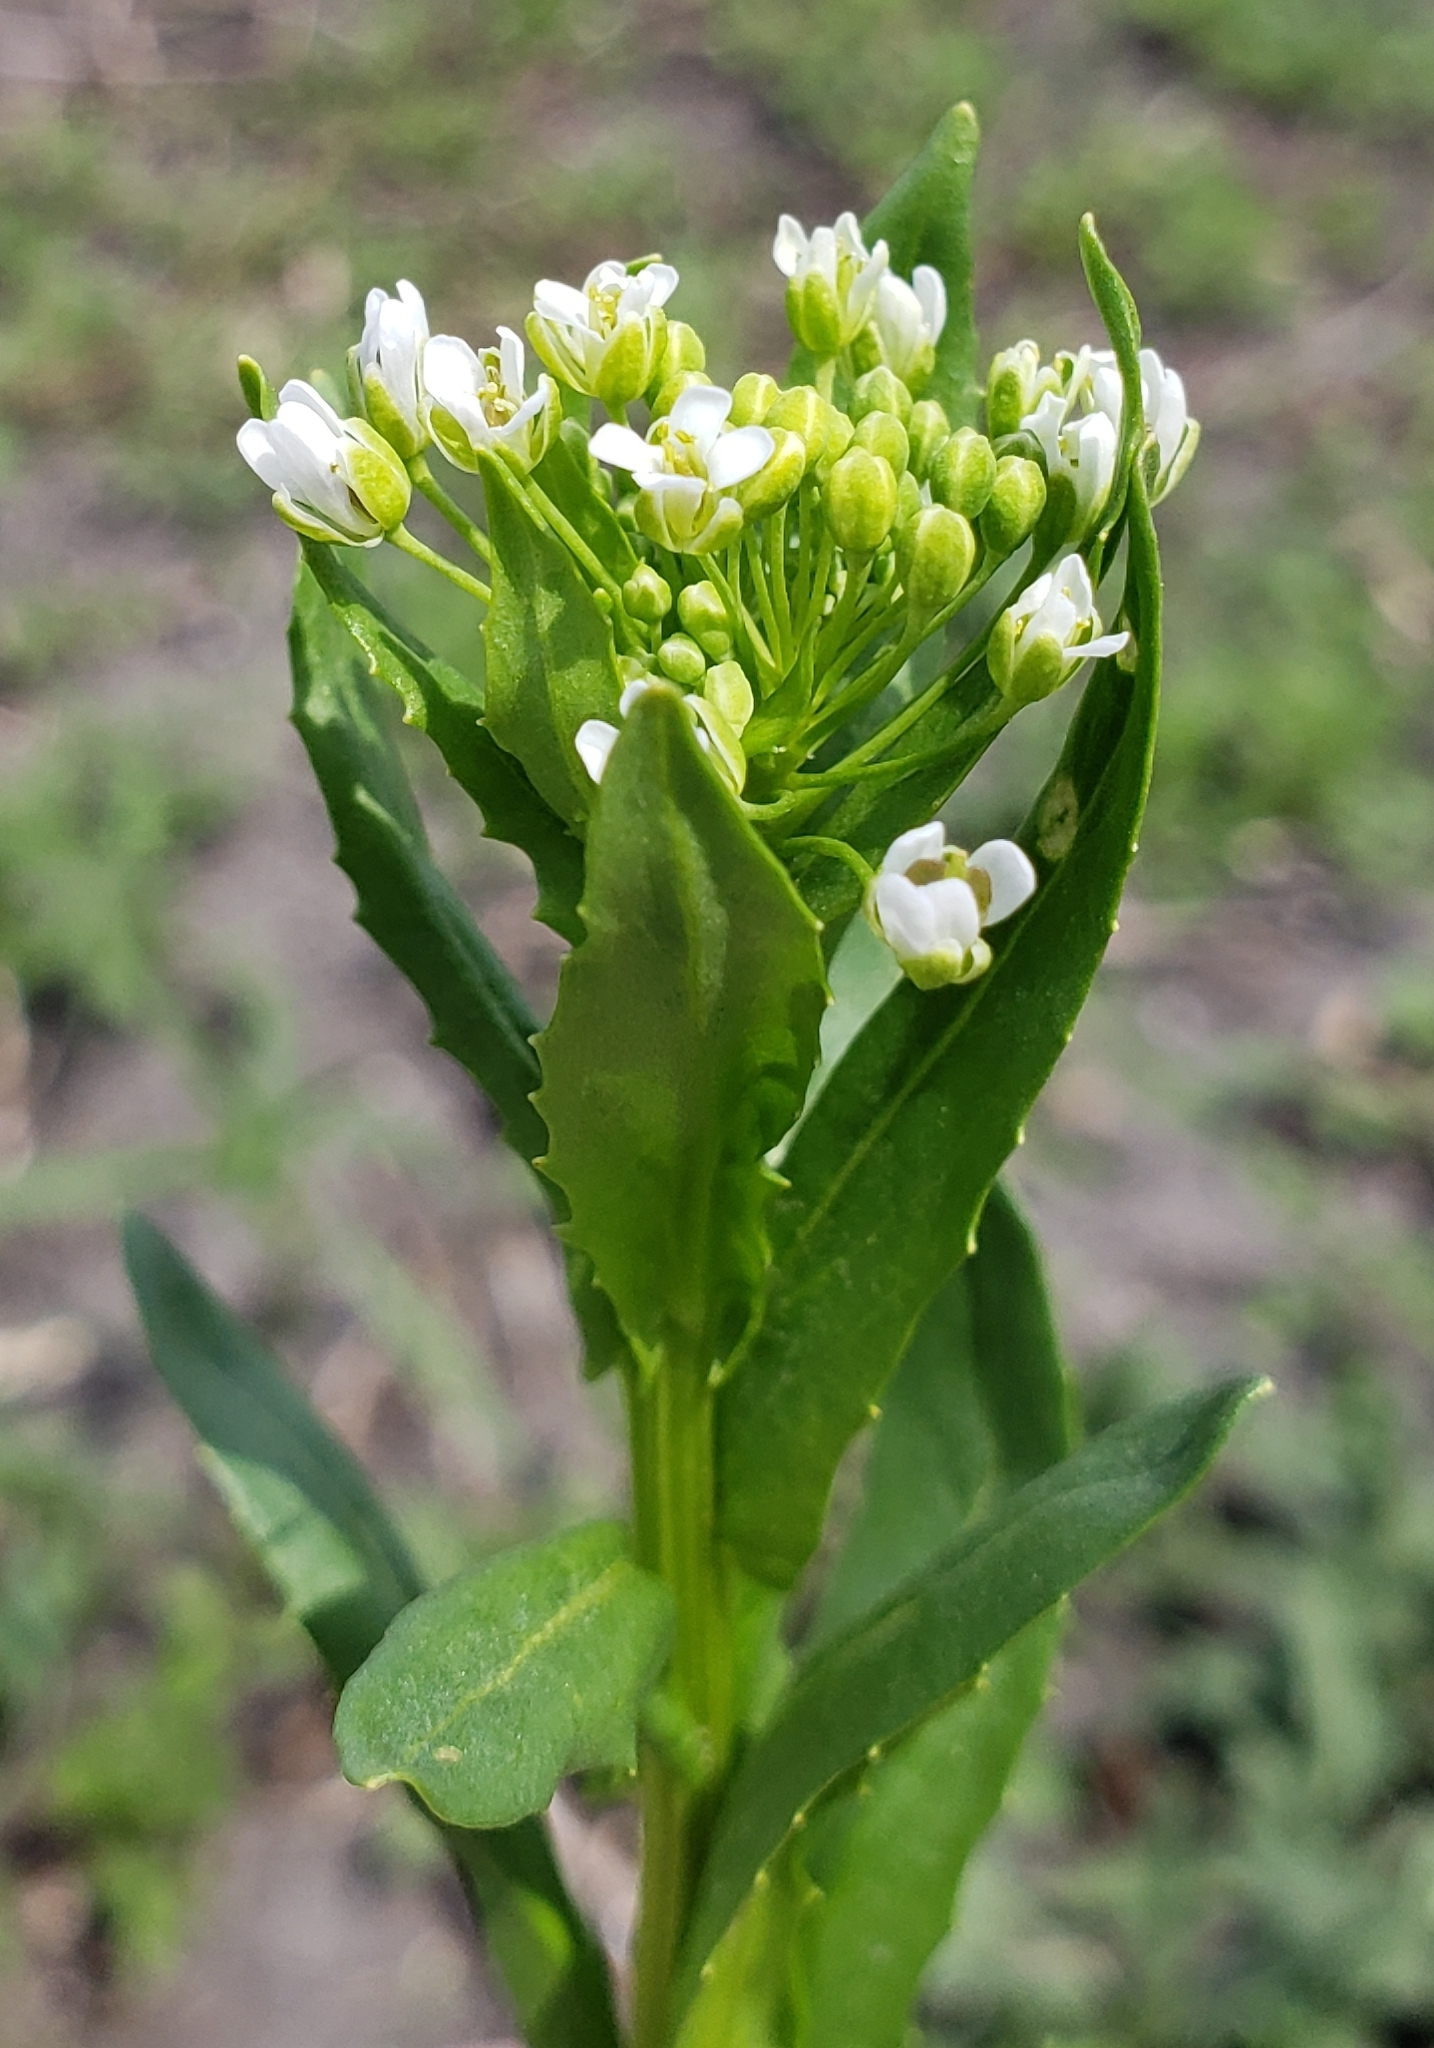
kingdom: Plantae
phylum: Tracheophyta
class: Magnoliopsida
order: Brassicales
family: Brassicaceae
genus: Thlaspi
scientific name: Thlaspi arvense
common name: Field pennycress
